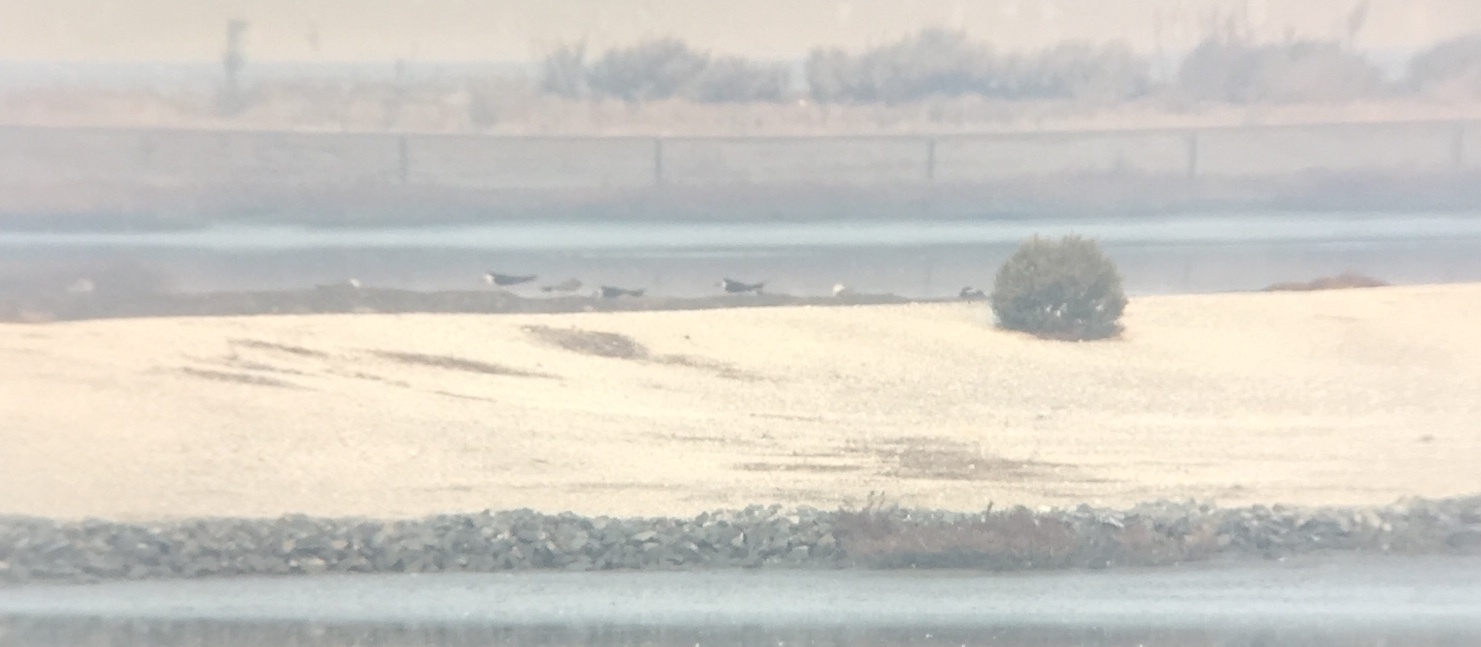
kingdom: Animalia
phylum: Chordata
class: Aves
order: Charadriiformes
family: Laridae
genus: Rynchops
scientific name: Rynchops niger
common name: Black skimmer
